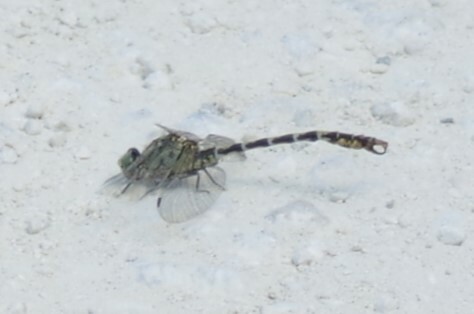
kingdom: Animalia
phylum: Arthropoda
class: Insecta
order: Odonata
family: Gomphidae
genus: Onychogomphus
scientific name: Onychogomphus forcipatus
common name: Small pincertail
